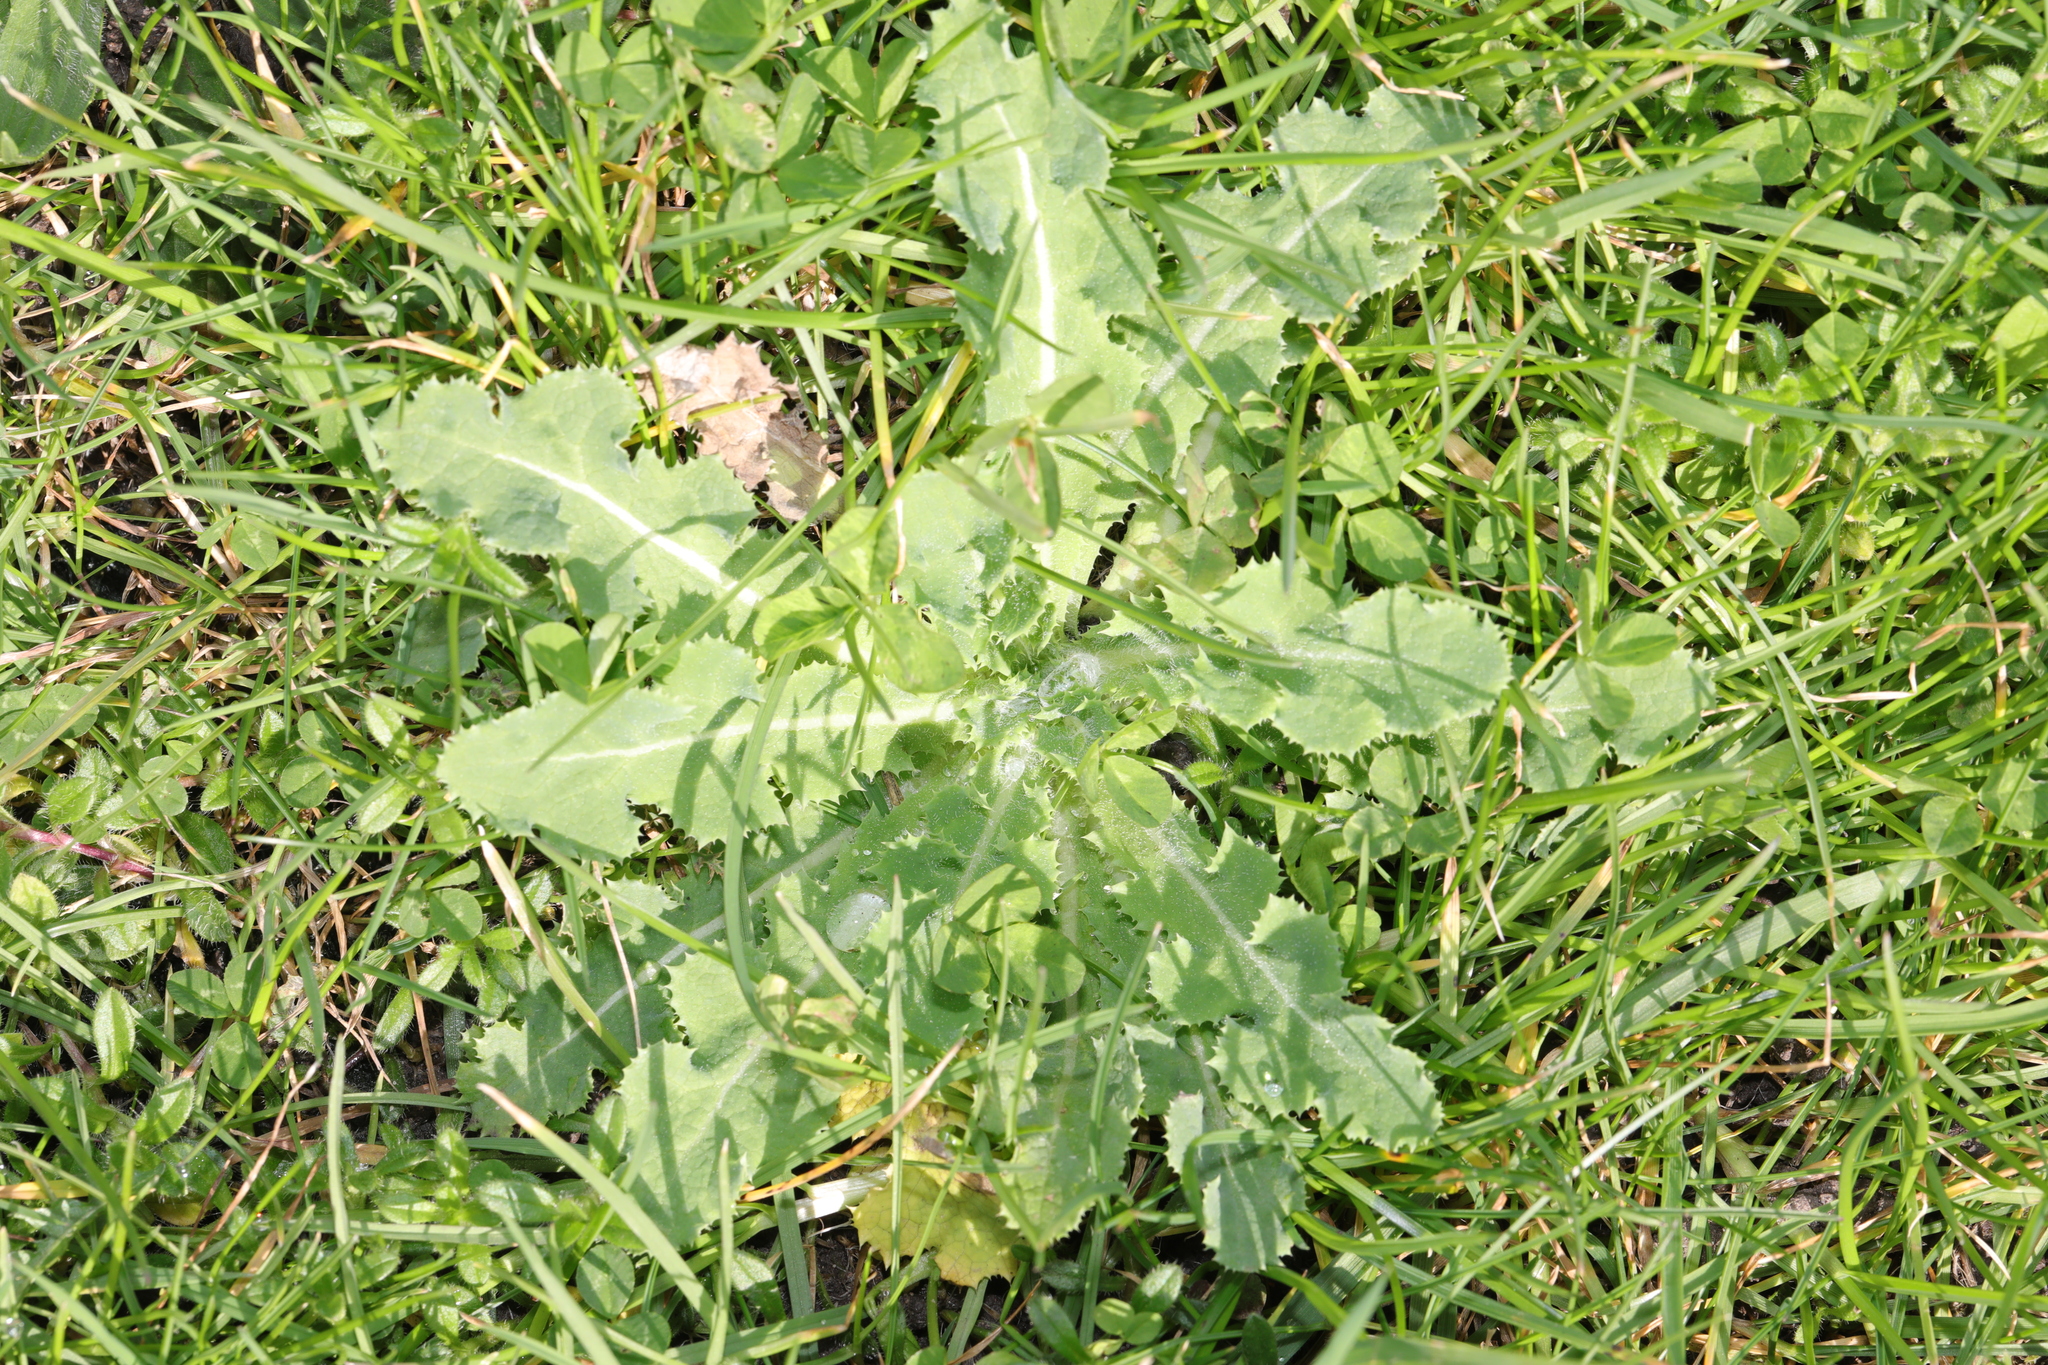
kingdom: Plantae
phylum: Tracheophyta
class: Magnoliopsida
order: Asterales
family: Asteraceae
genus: Sonchus
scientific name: Sonchus asper
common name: Prickly sow-thistle
